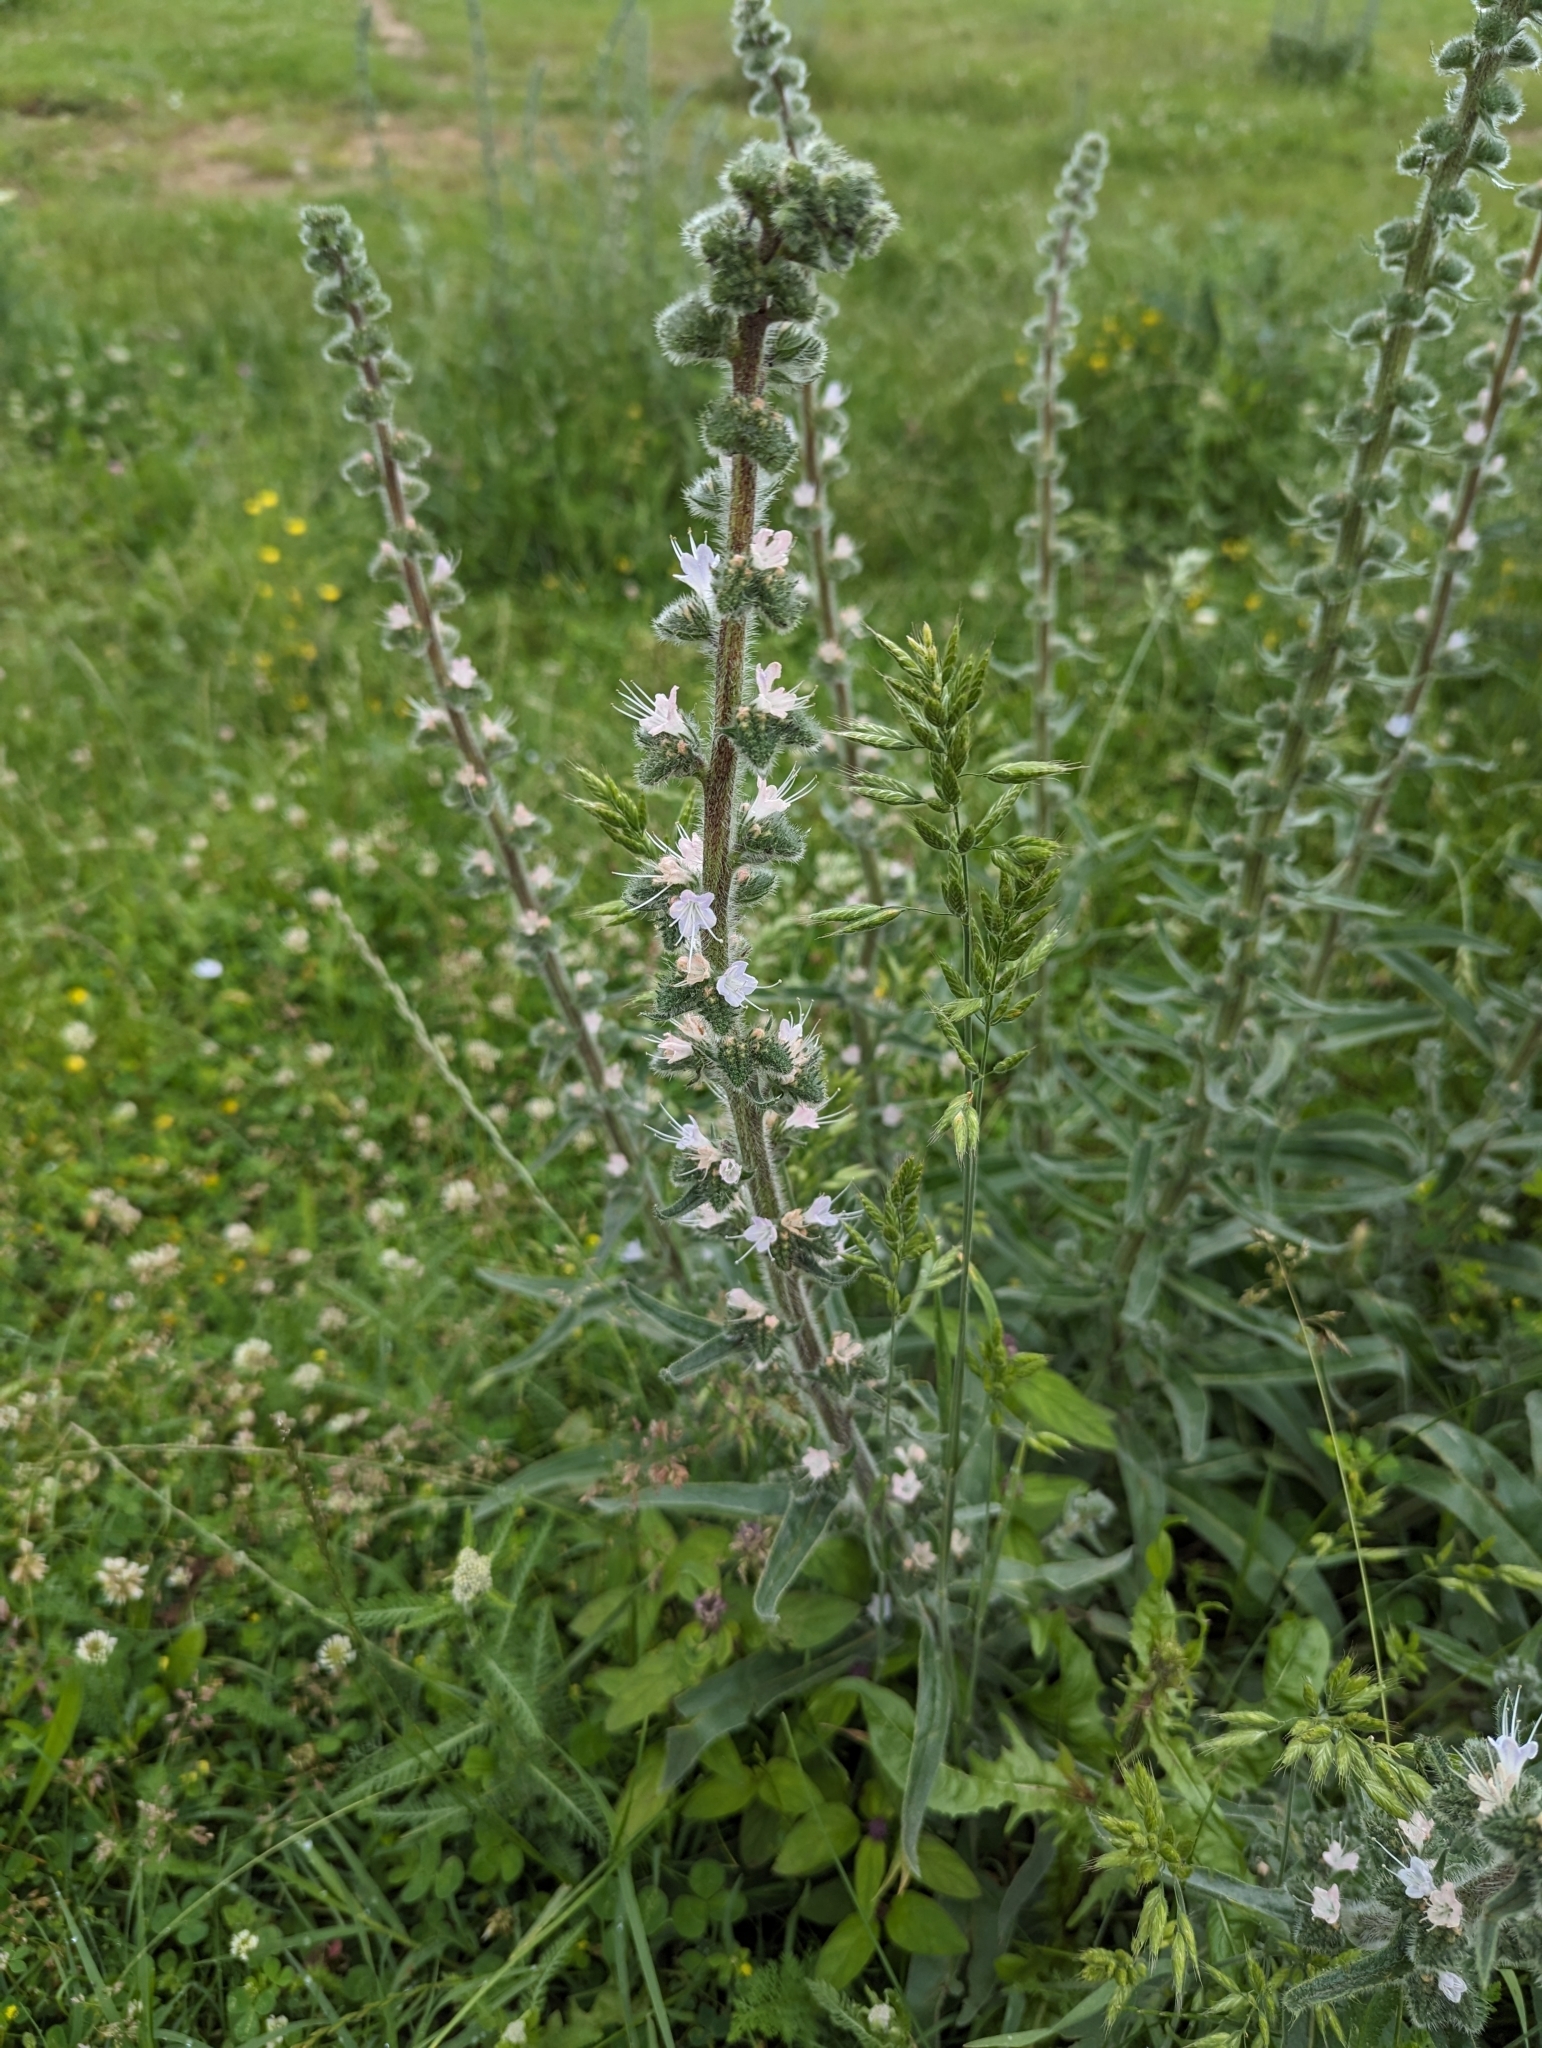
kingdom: Plantae
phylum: Tracheophyta
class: Magnoliopsida
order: Boraginales
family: Boraginaceae
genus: Echium
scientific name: Echium italicum
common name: Italian viper's bugloss
